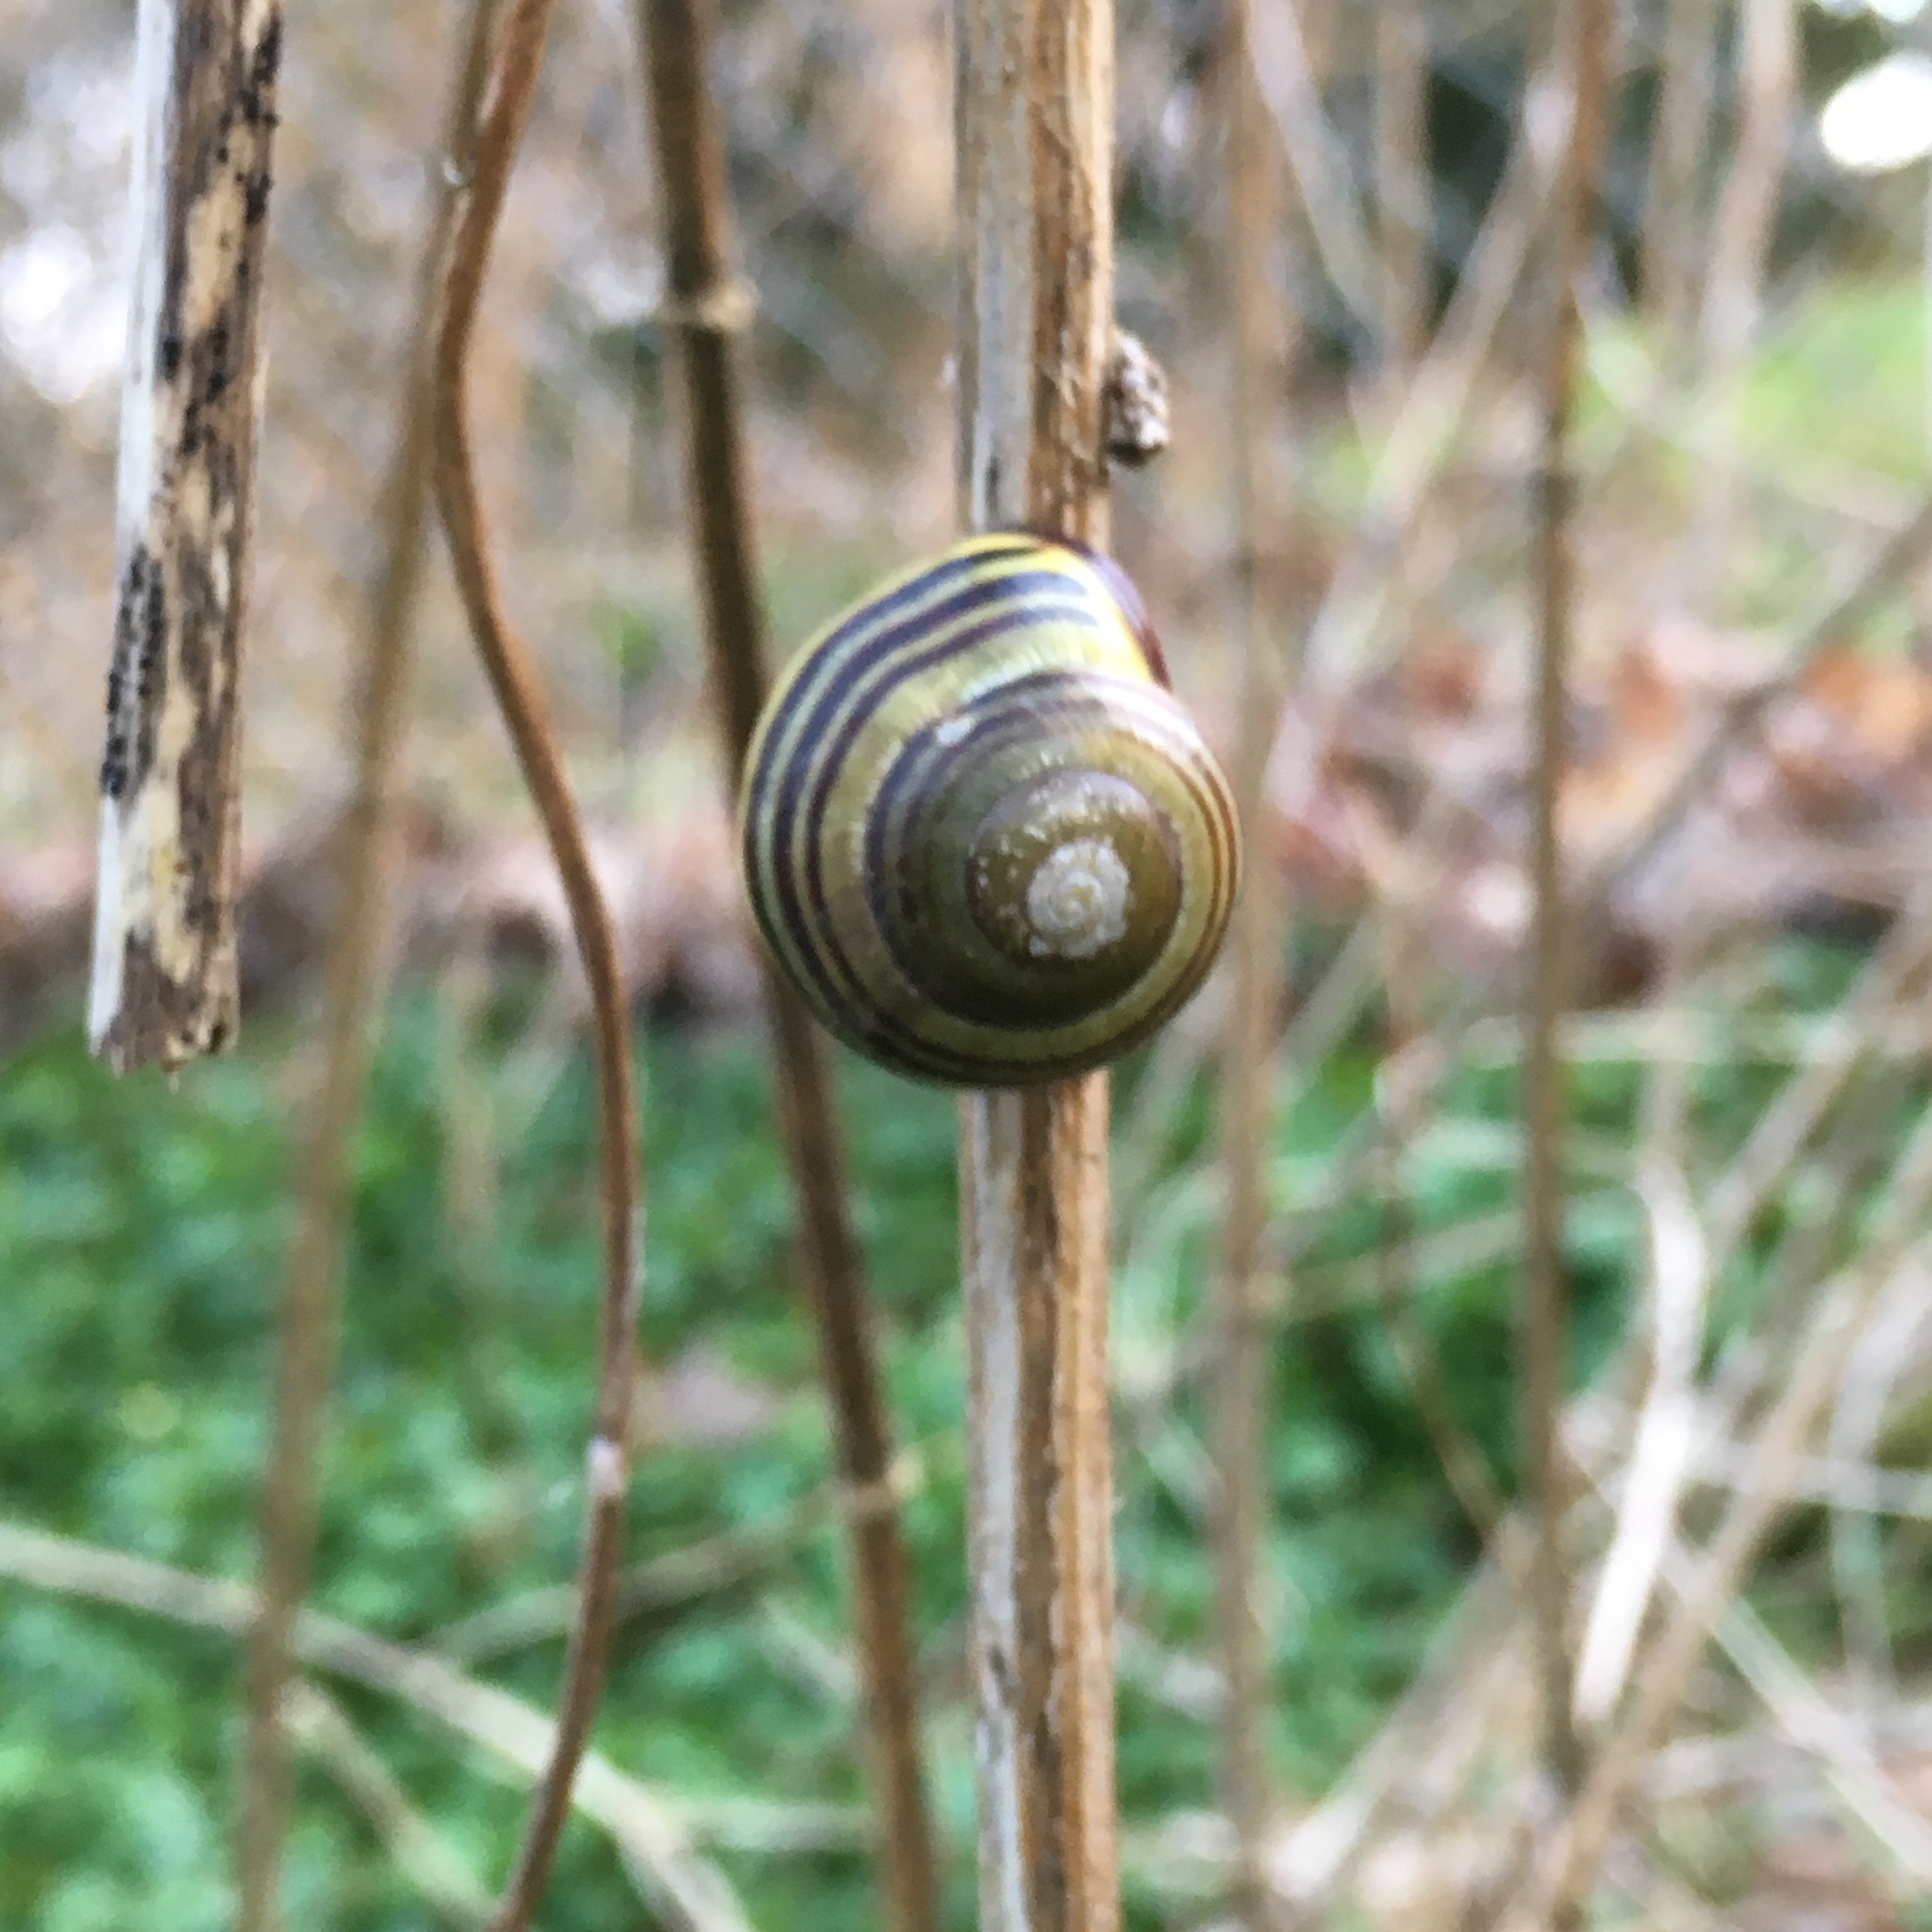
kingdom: Animalia
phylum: Mollusca
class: Gastropoda
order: Stylommatophora
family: Helicidae
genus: Cepaea
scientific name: Cepaea nemoralis
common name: Grovesnail
